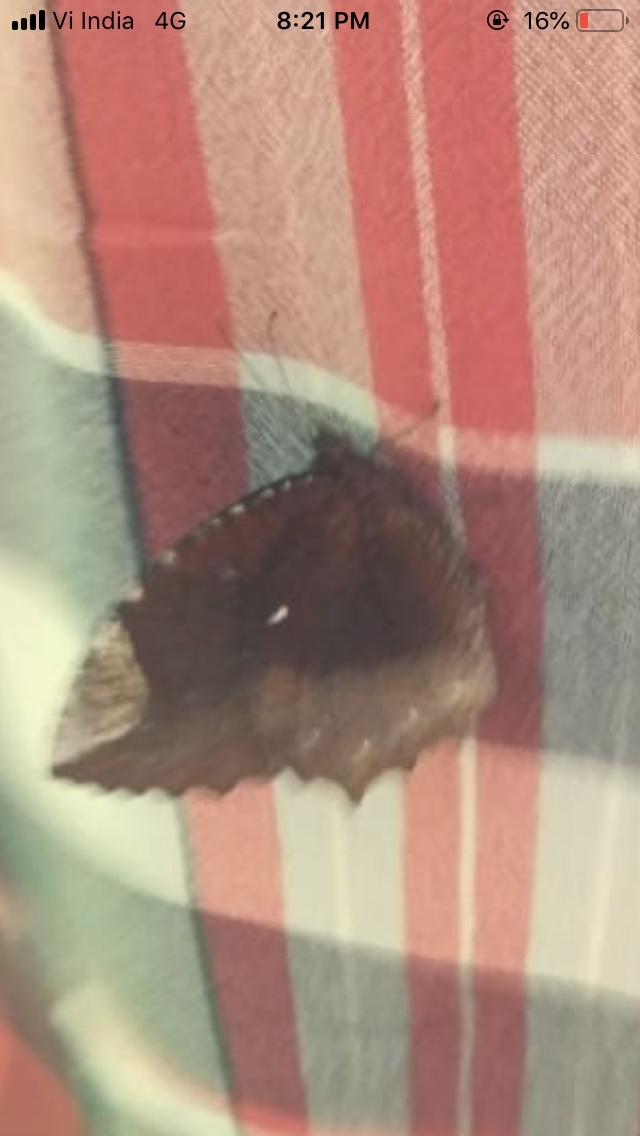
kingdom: Animalia
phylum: Arthropoda
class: Insecta
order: Lepidoptera
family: Nymphalidae
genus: Elymnias
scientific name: Elymnias hypermnestra
